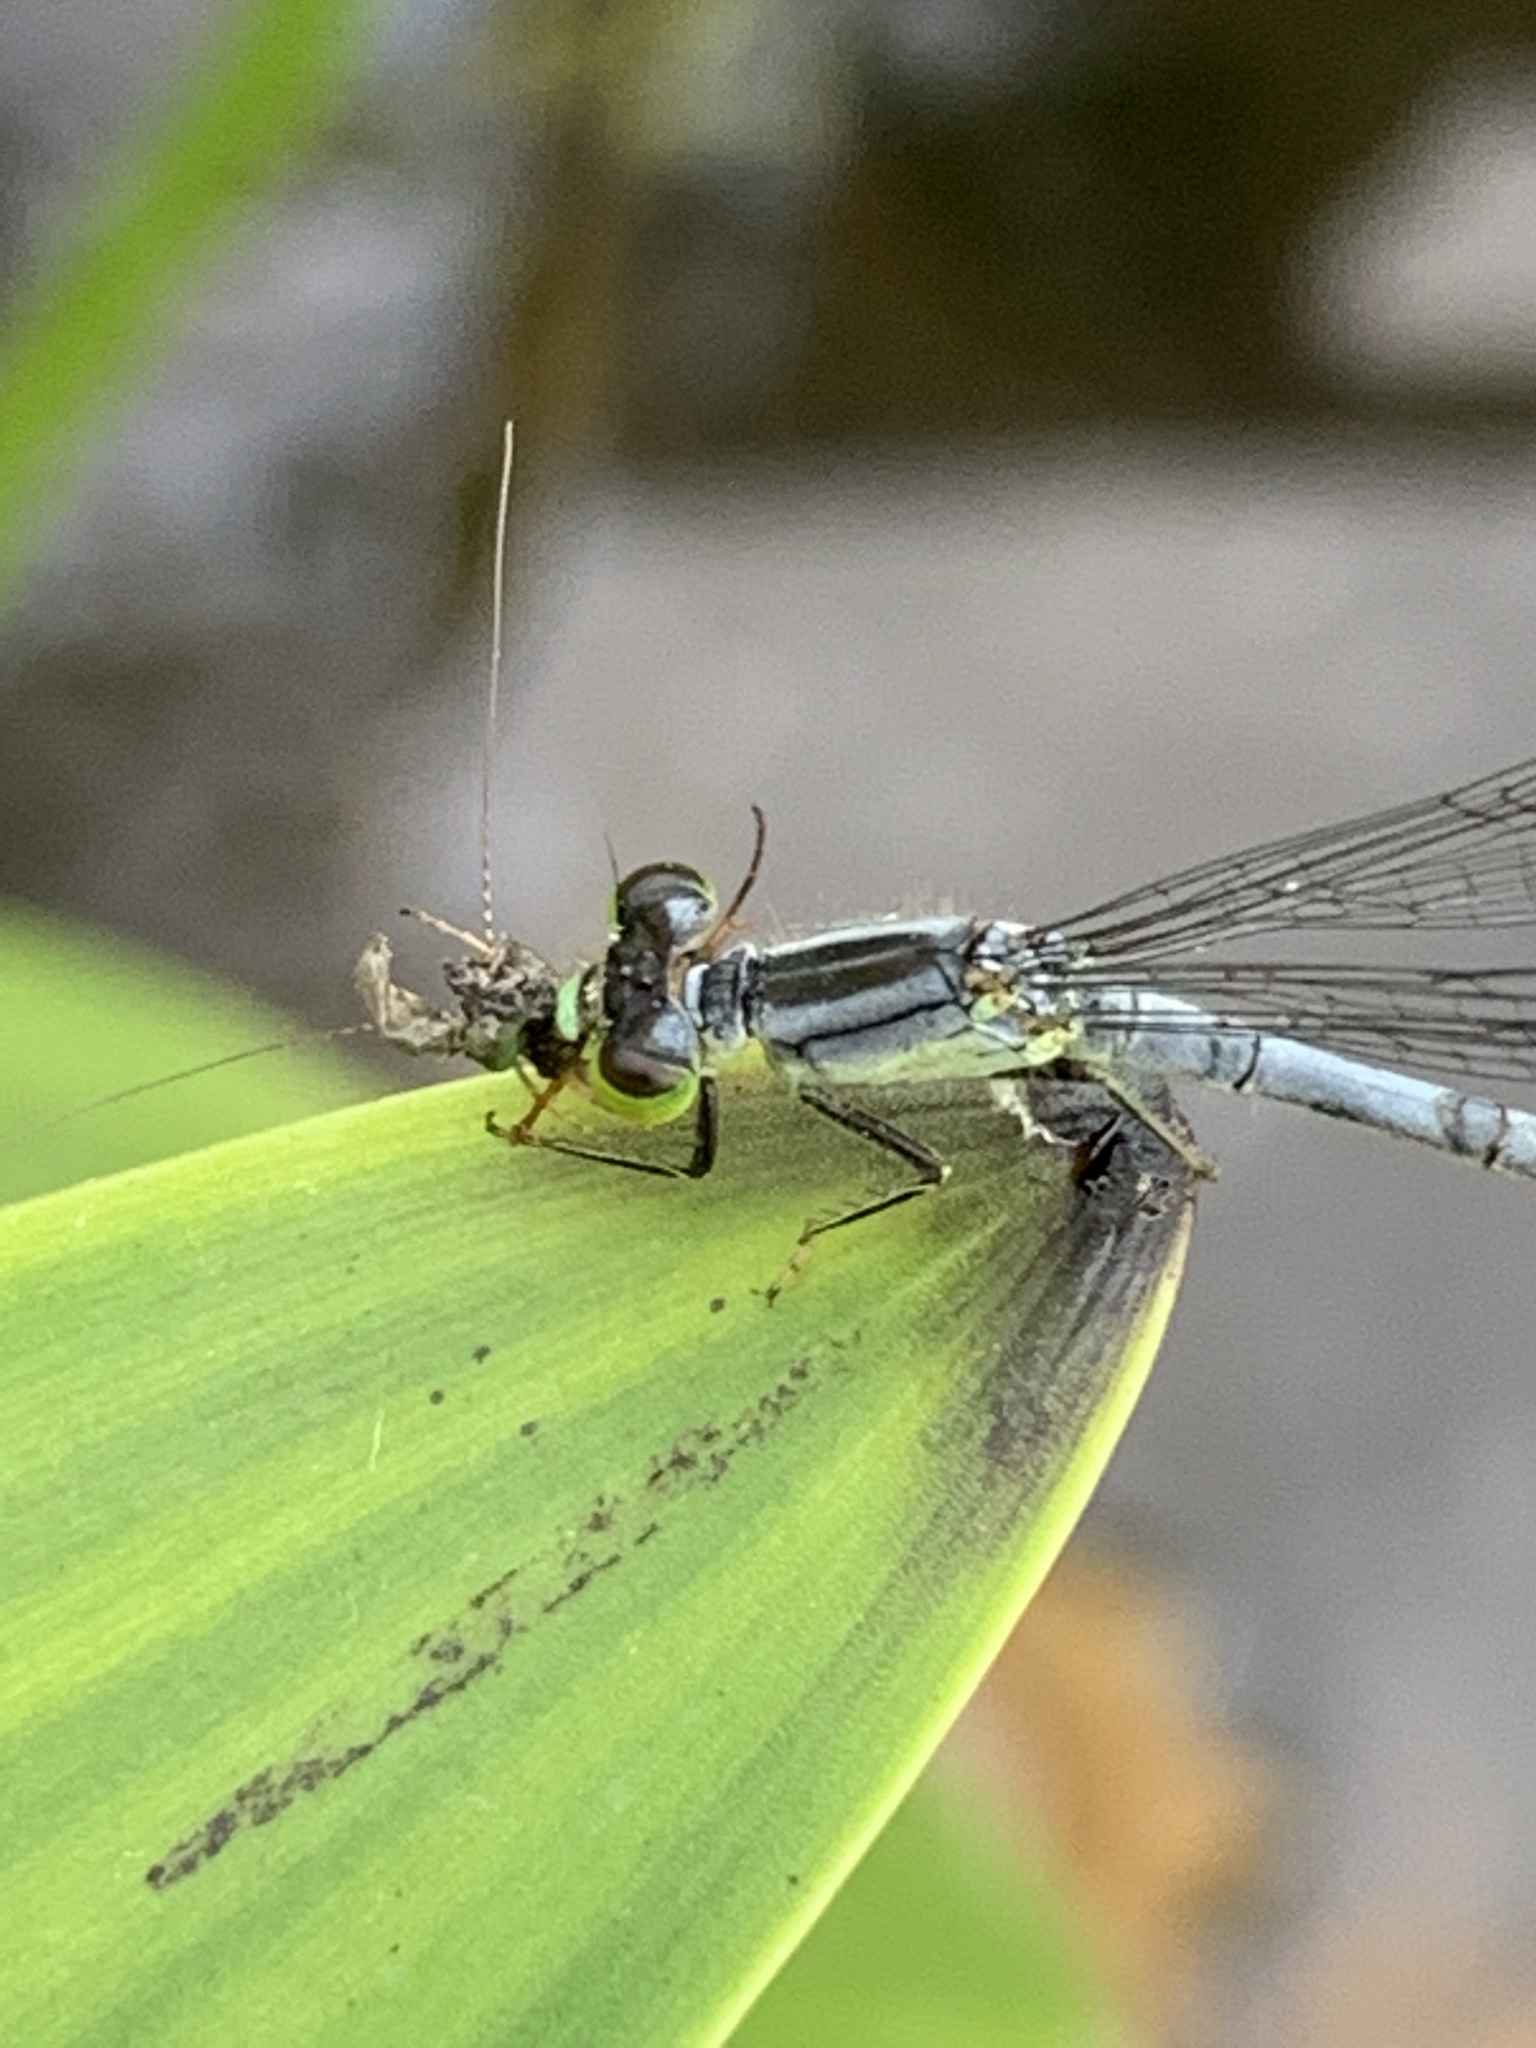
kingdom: Animalia
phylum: Arthropoda
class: Insecta
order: Odonata
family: Coenagrionidae
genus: Ischnura
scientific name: Ischnura verticalis
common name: Eastern forktail
